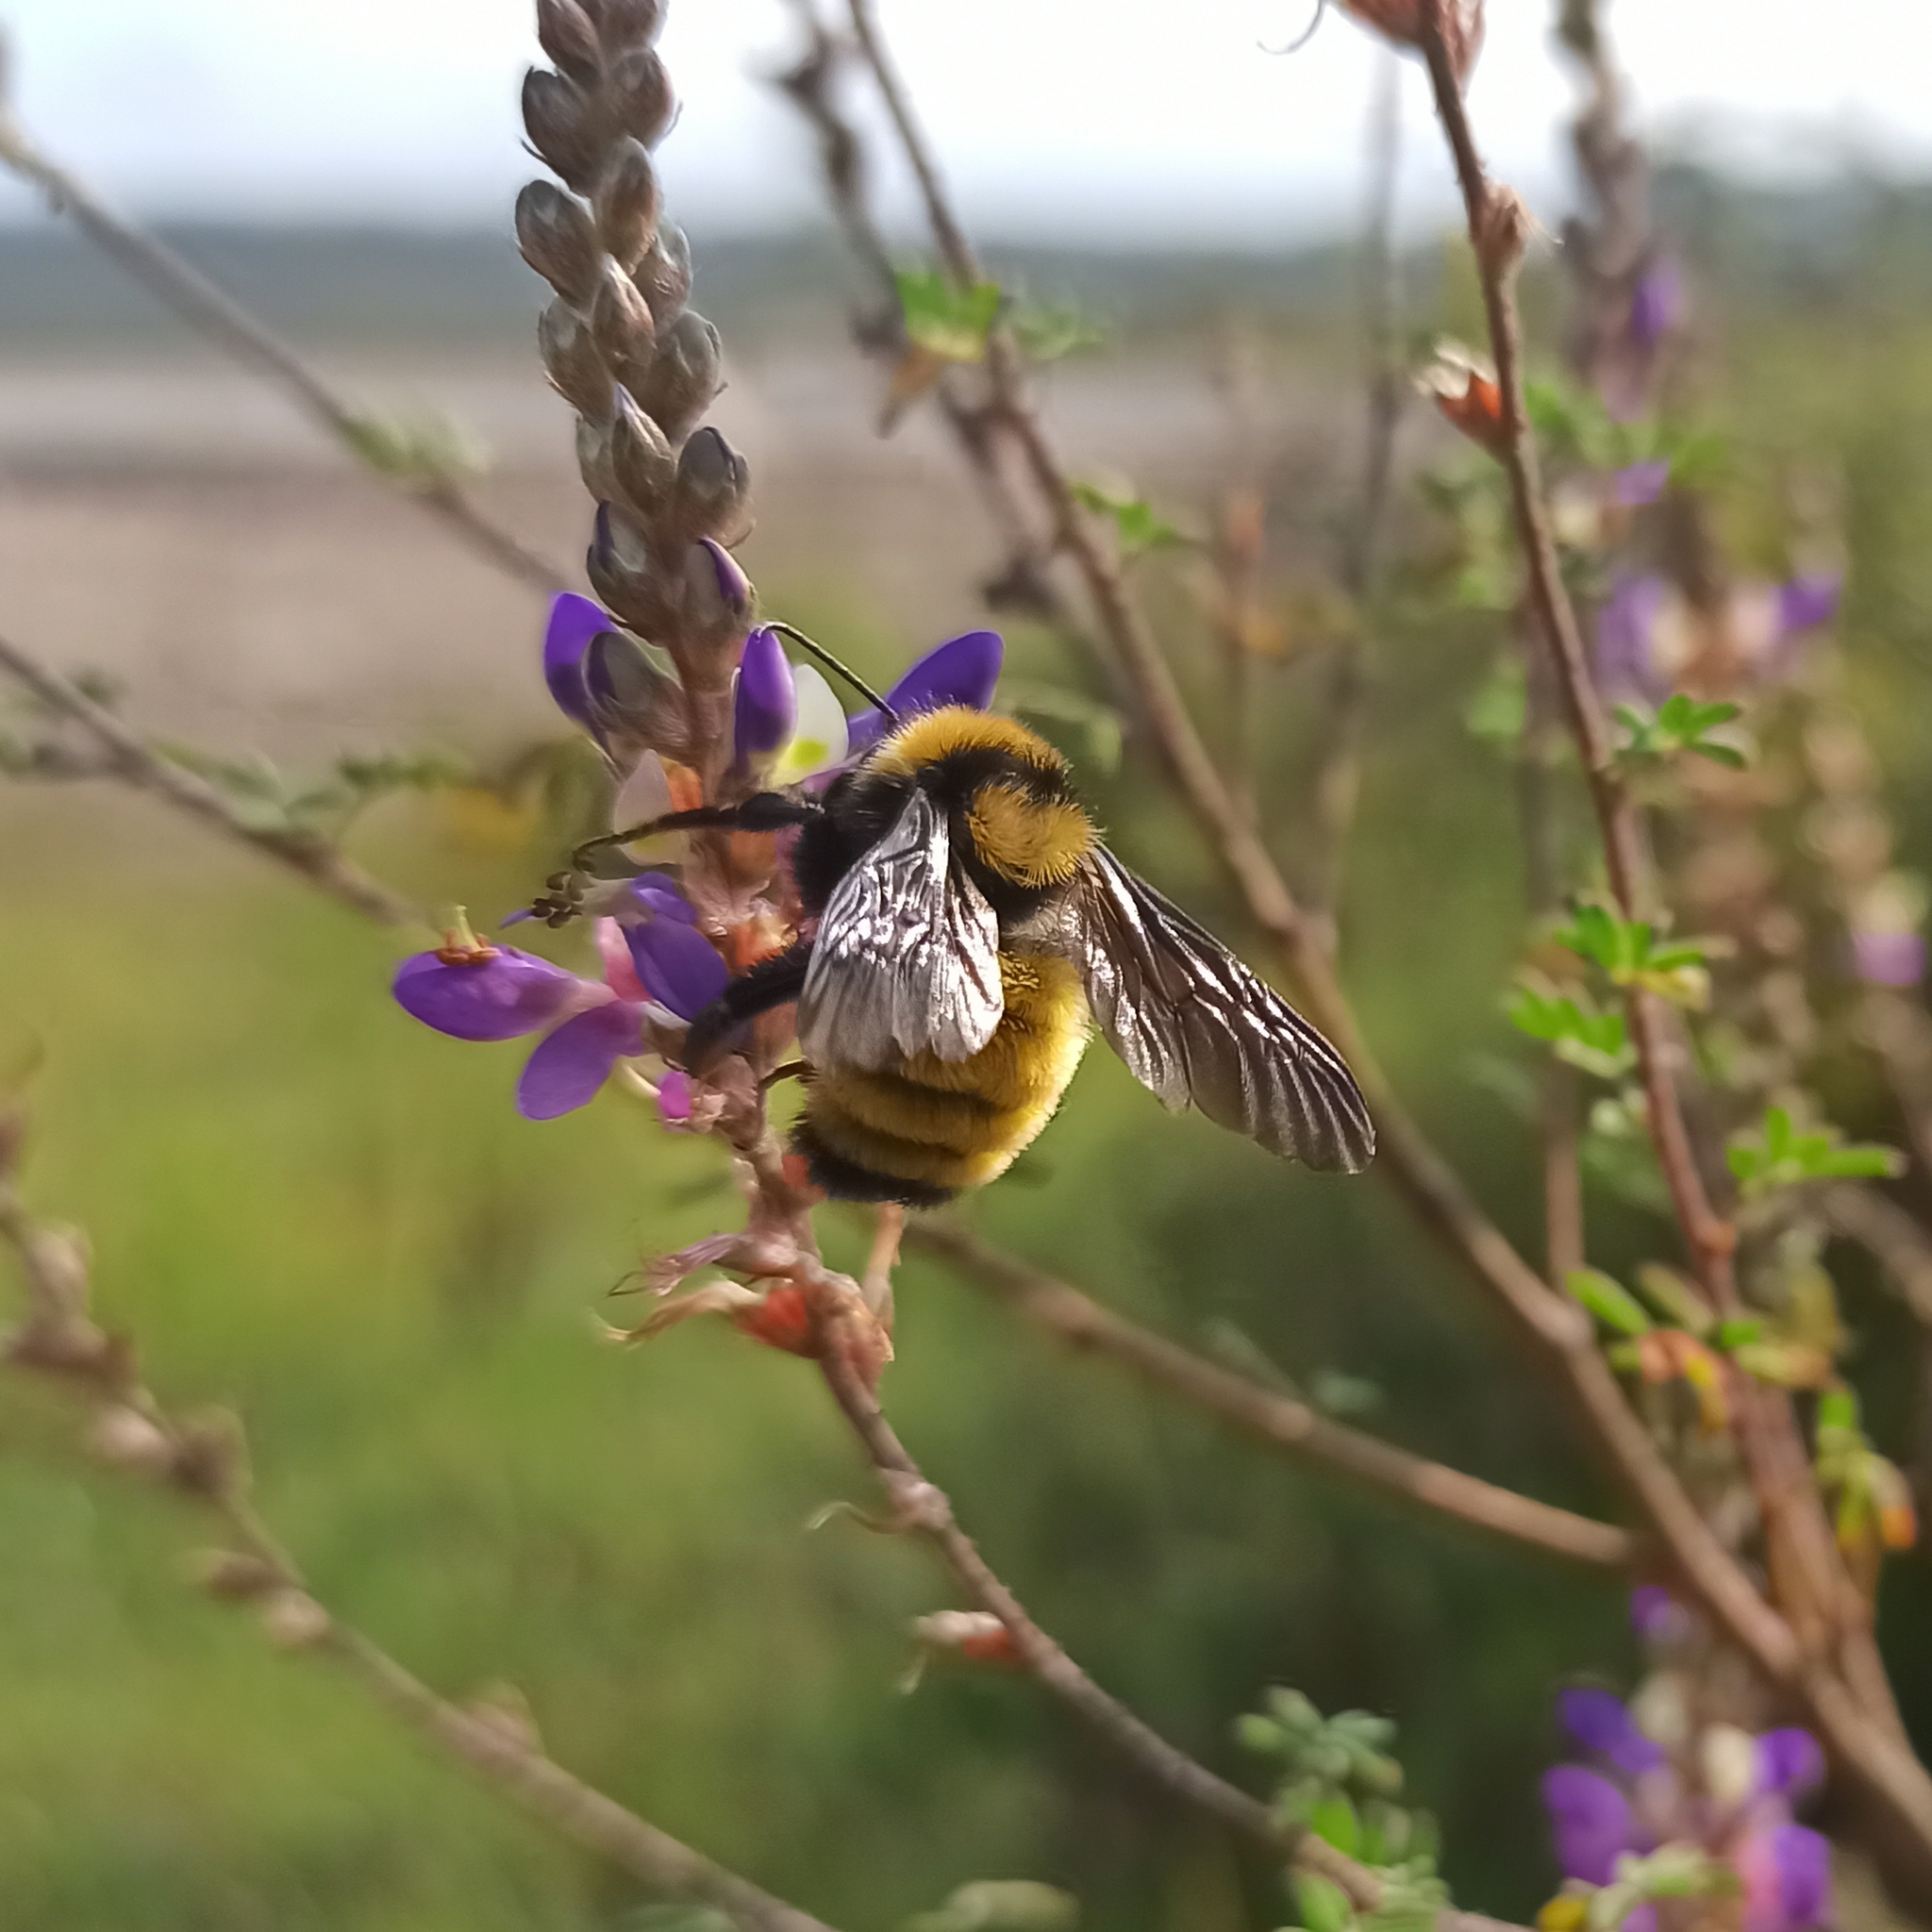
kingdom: Animalia
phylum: Arthropoda
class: Insecta
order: Hymenoptera
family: Apidae
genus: Bombus
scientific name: Bombus sonorus
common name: Sonoran bumble bee
